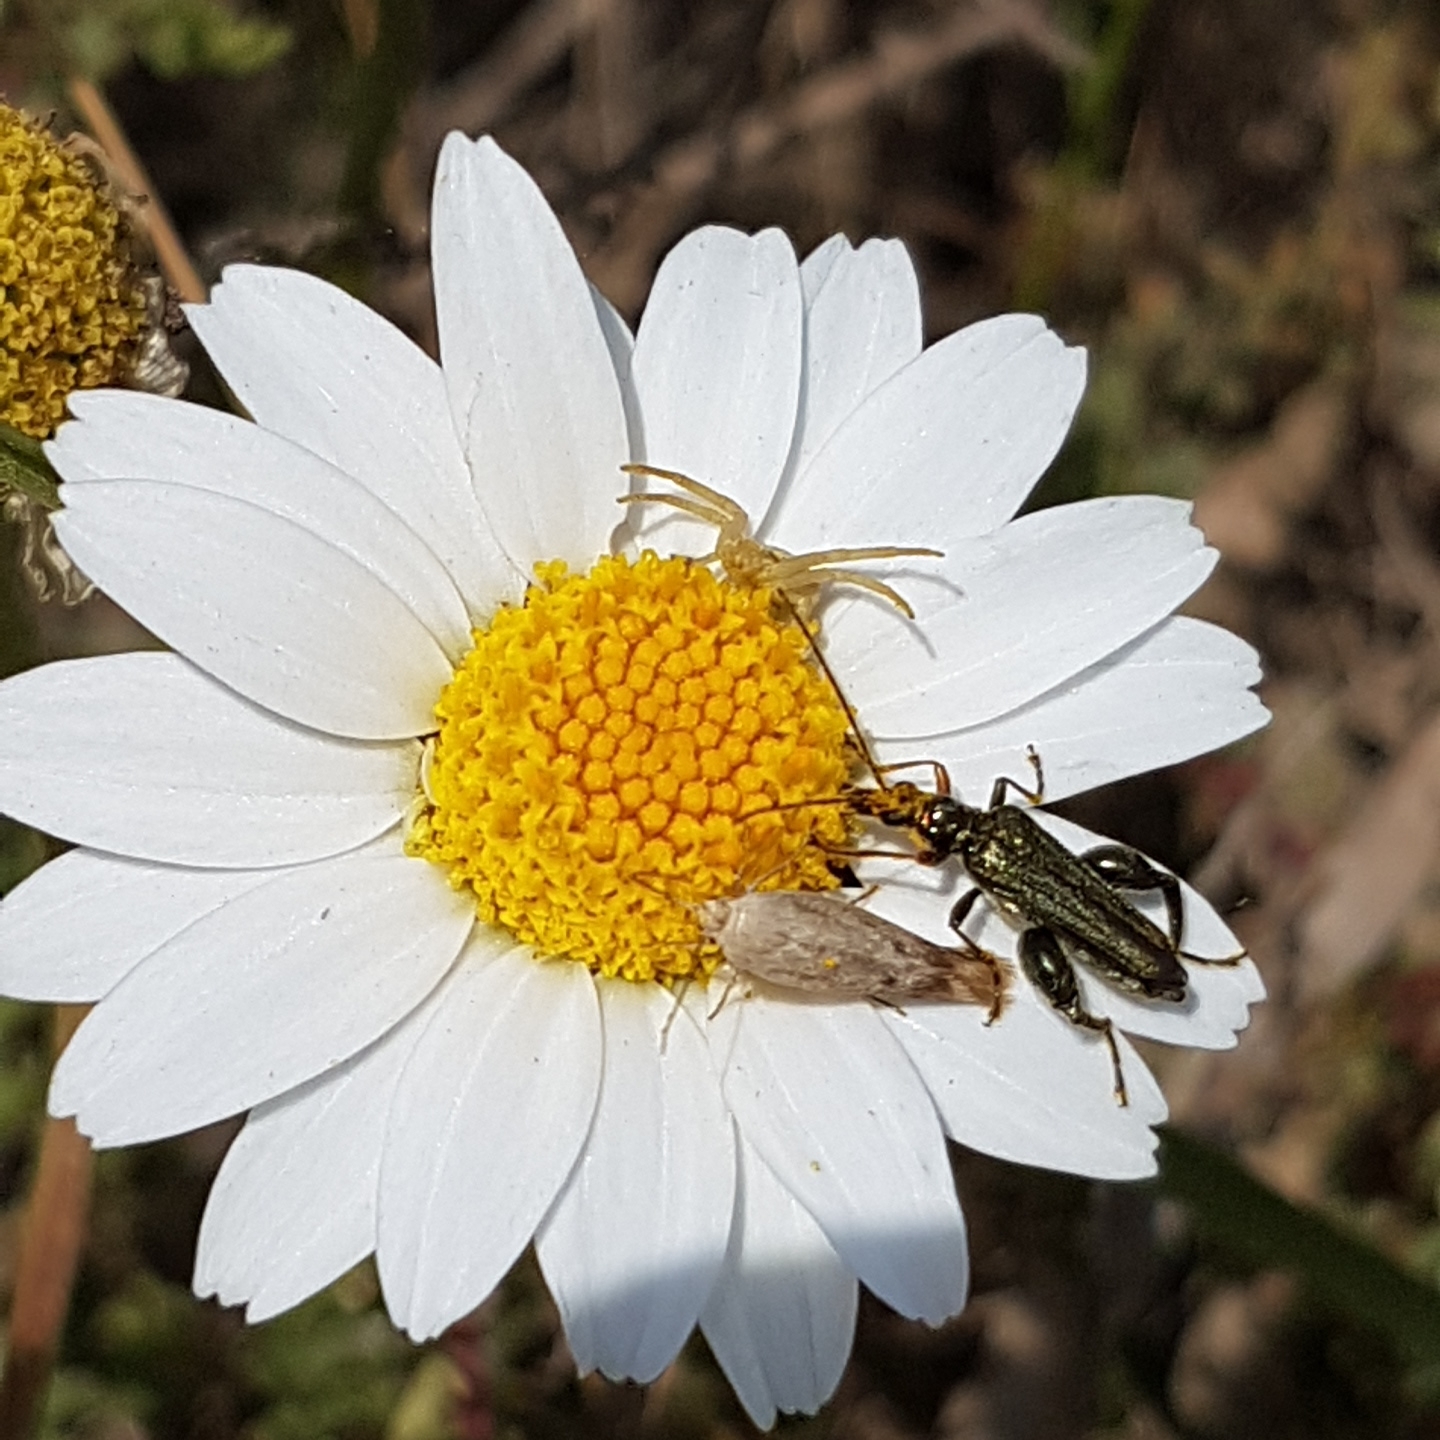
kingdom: Animalia
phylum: Arthropoda
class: Insecta
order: Coleoptera
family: Oedemeridae
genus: Oedemera
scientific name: Oedemera flavipes
